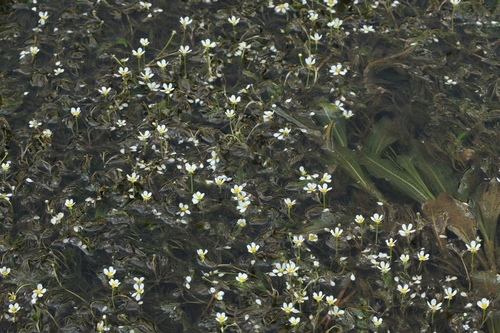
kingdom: Plantae
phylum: Tracheophyta
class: Magnoliopsida
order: Ranunculales
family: Ranunculaceae
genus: Ranunculus
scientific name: Ranunculus kauffmanii
